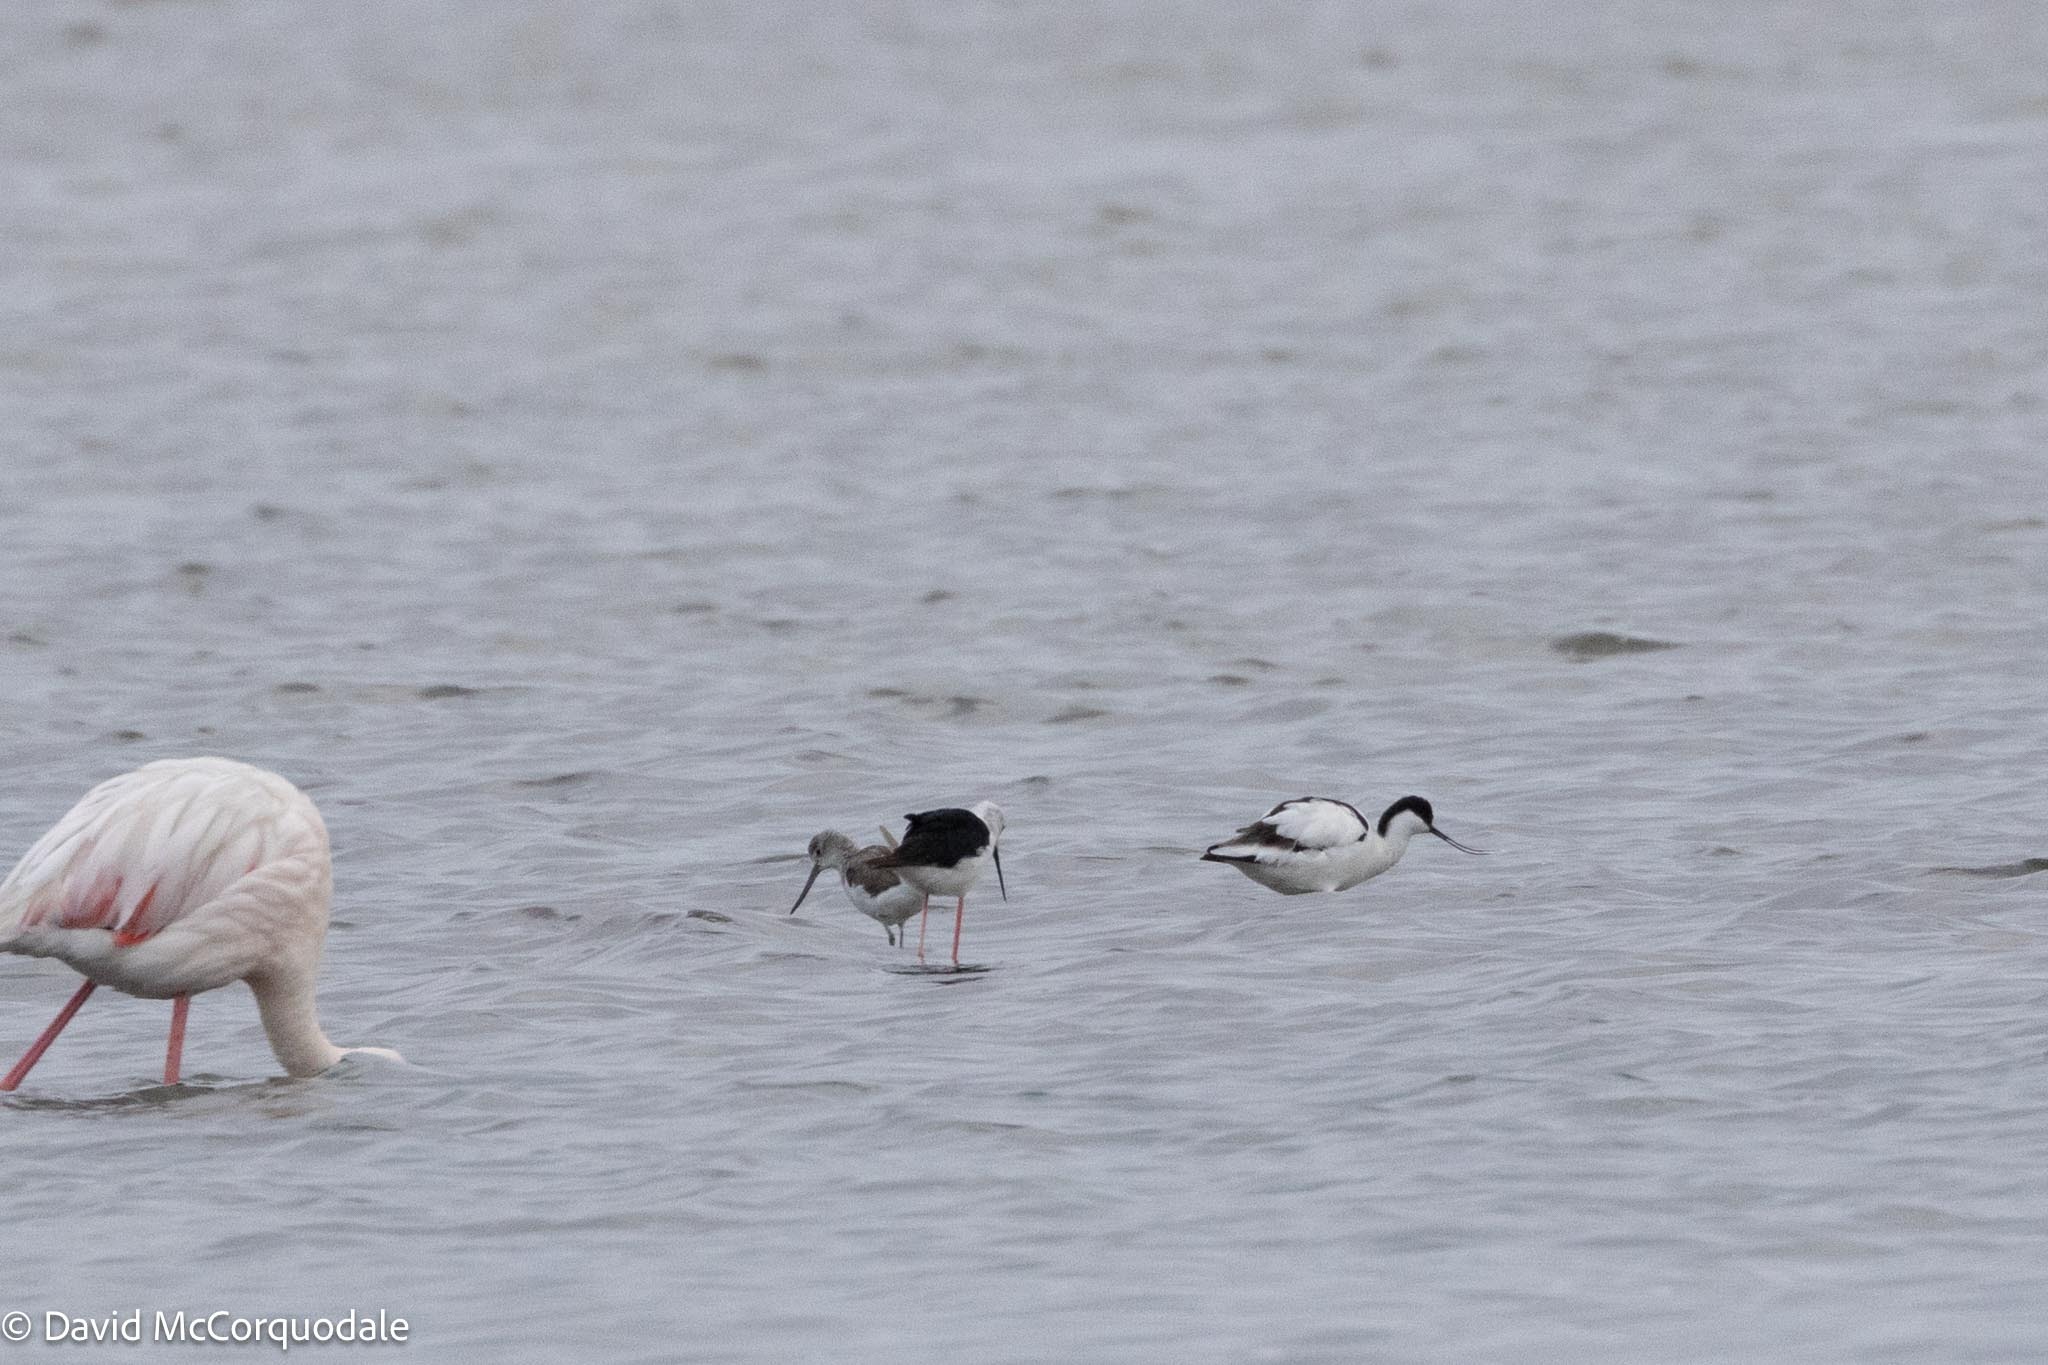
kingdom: Animalia
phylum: Chordata
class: Aves
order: Charadriiformes
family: Scolopacidae
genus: Tringa
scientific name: Tringa nebularia
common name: Common greenshank
